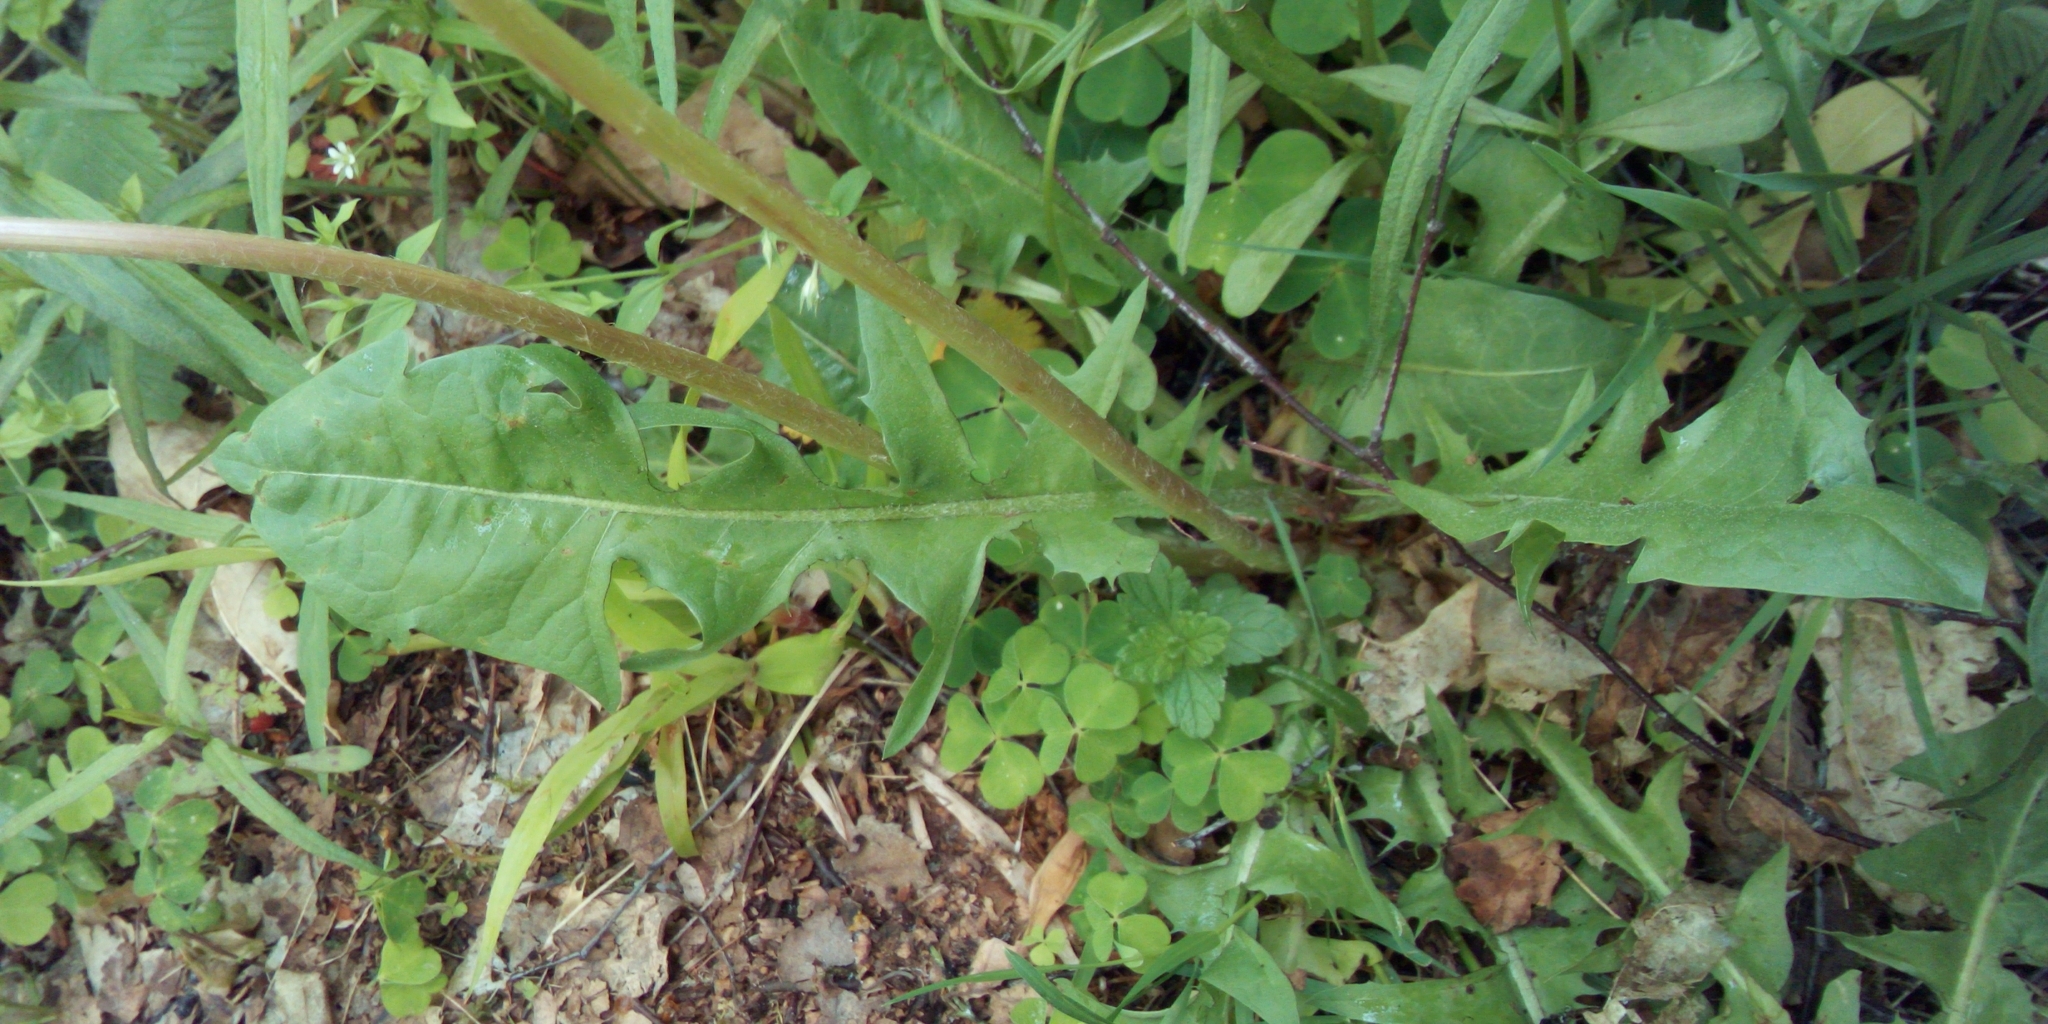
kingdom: Plantae
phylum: Tracheophyta
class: Magnoliopsida
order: Asterales
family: Asteraceae
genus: Taraxacum
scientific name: Taraxacum officinale
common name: Common dandelion
